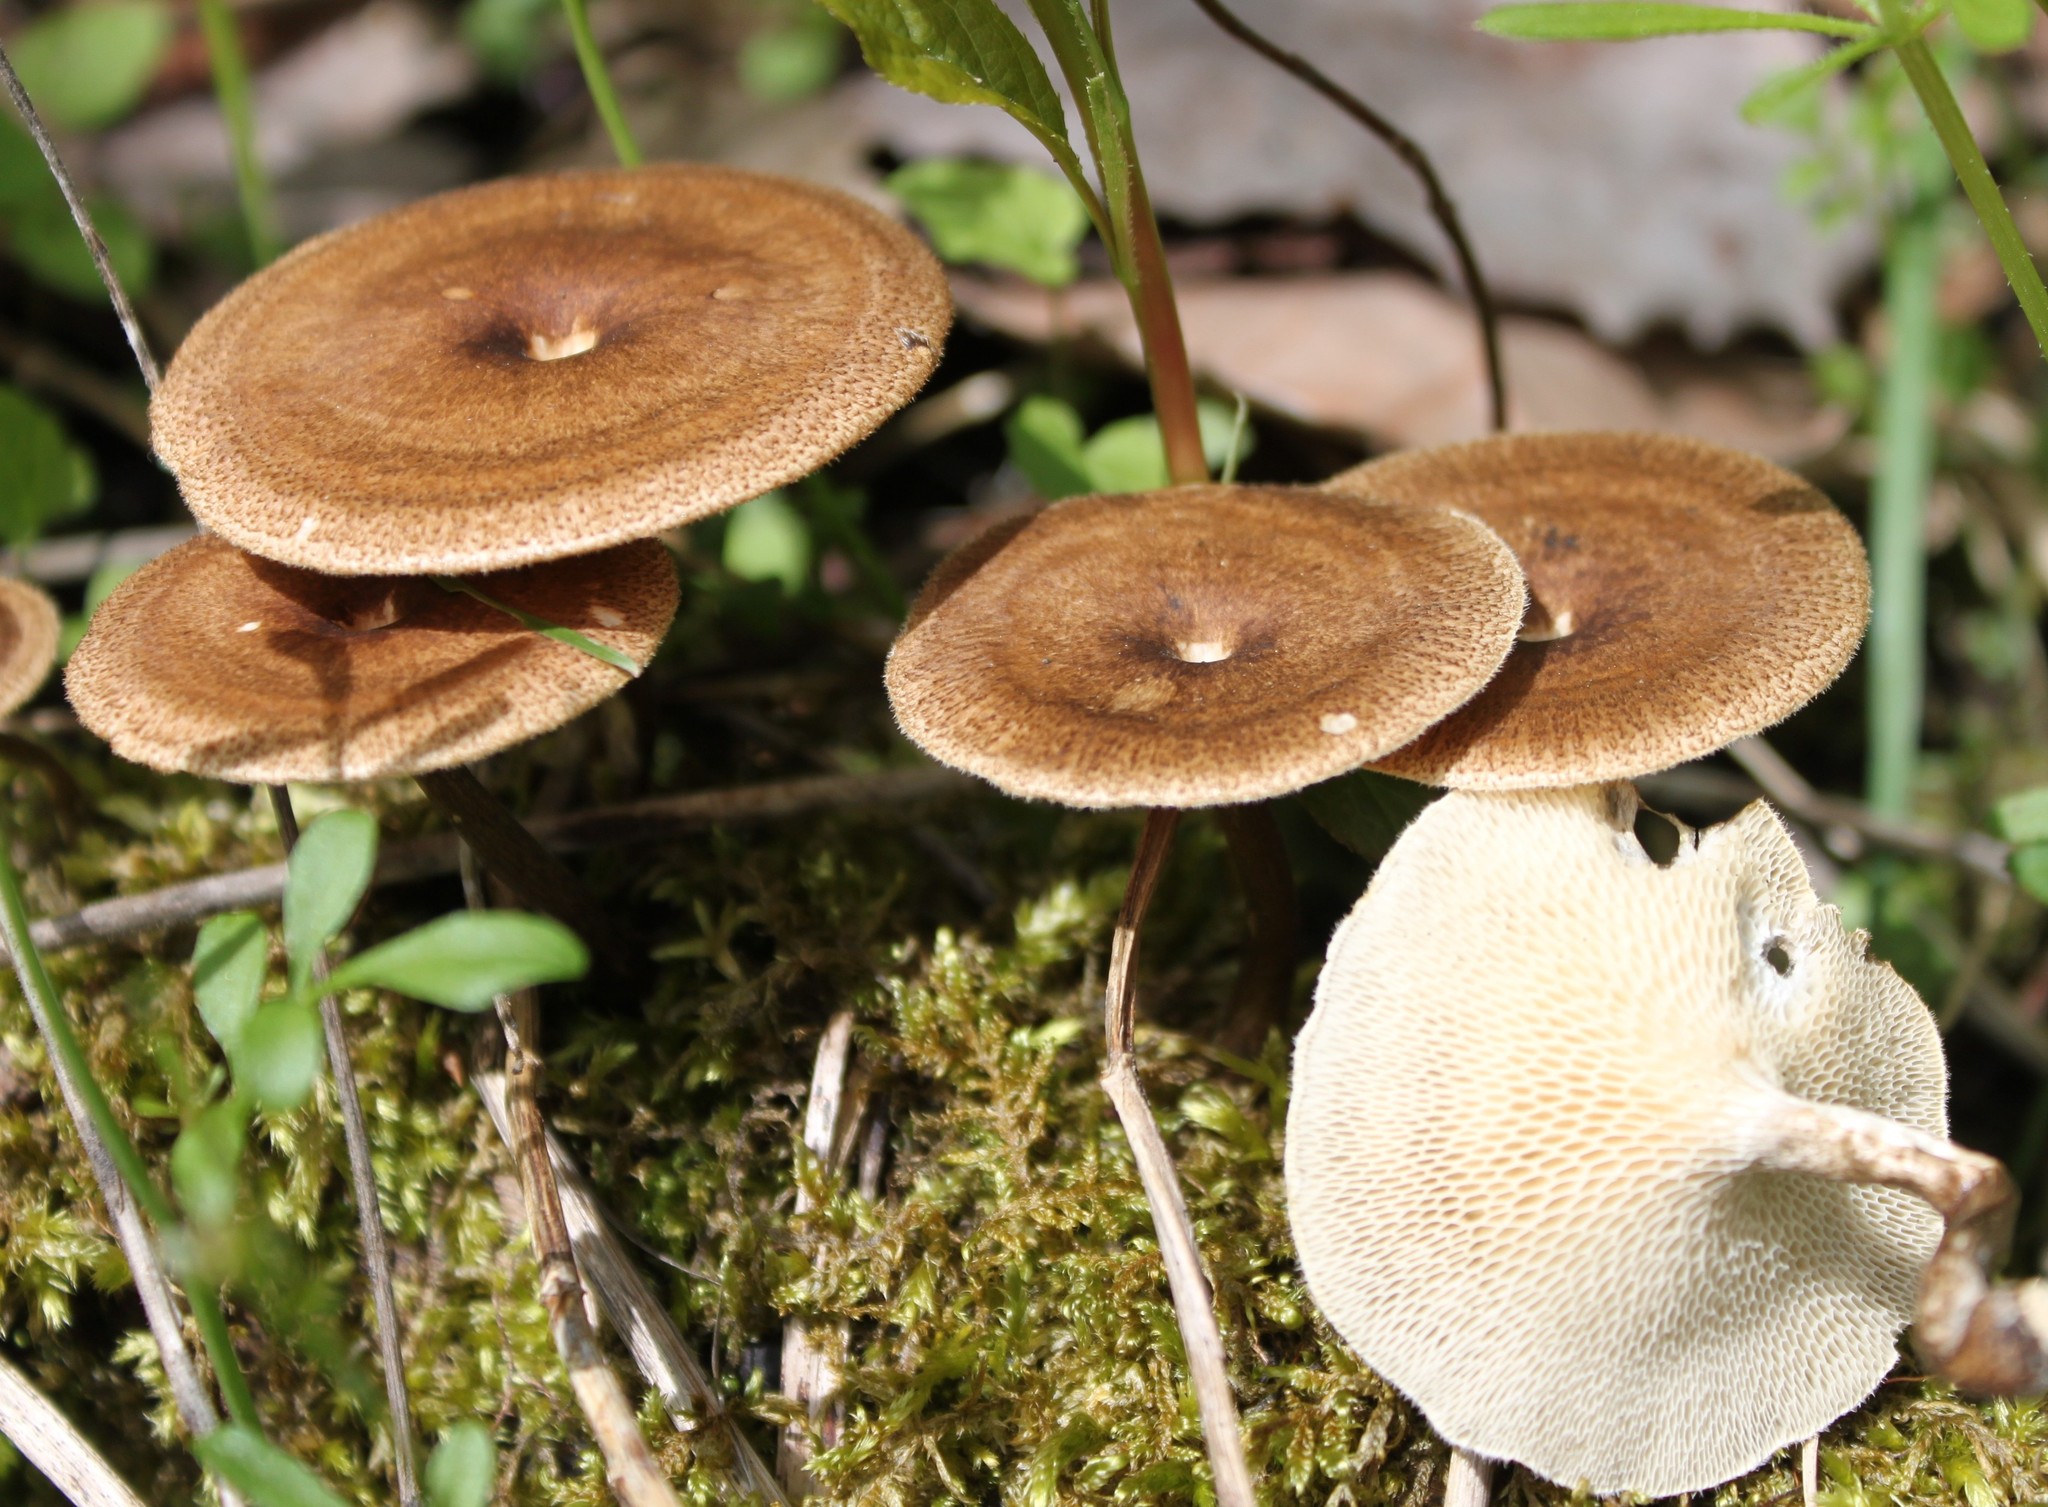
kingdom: Fungi
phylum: Basidiomycota
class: Agaricomycetes
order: Polyporales
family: Polyporaceae
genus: Lentinus
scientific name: Lentinus arcularius
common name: Spring polypore
